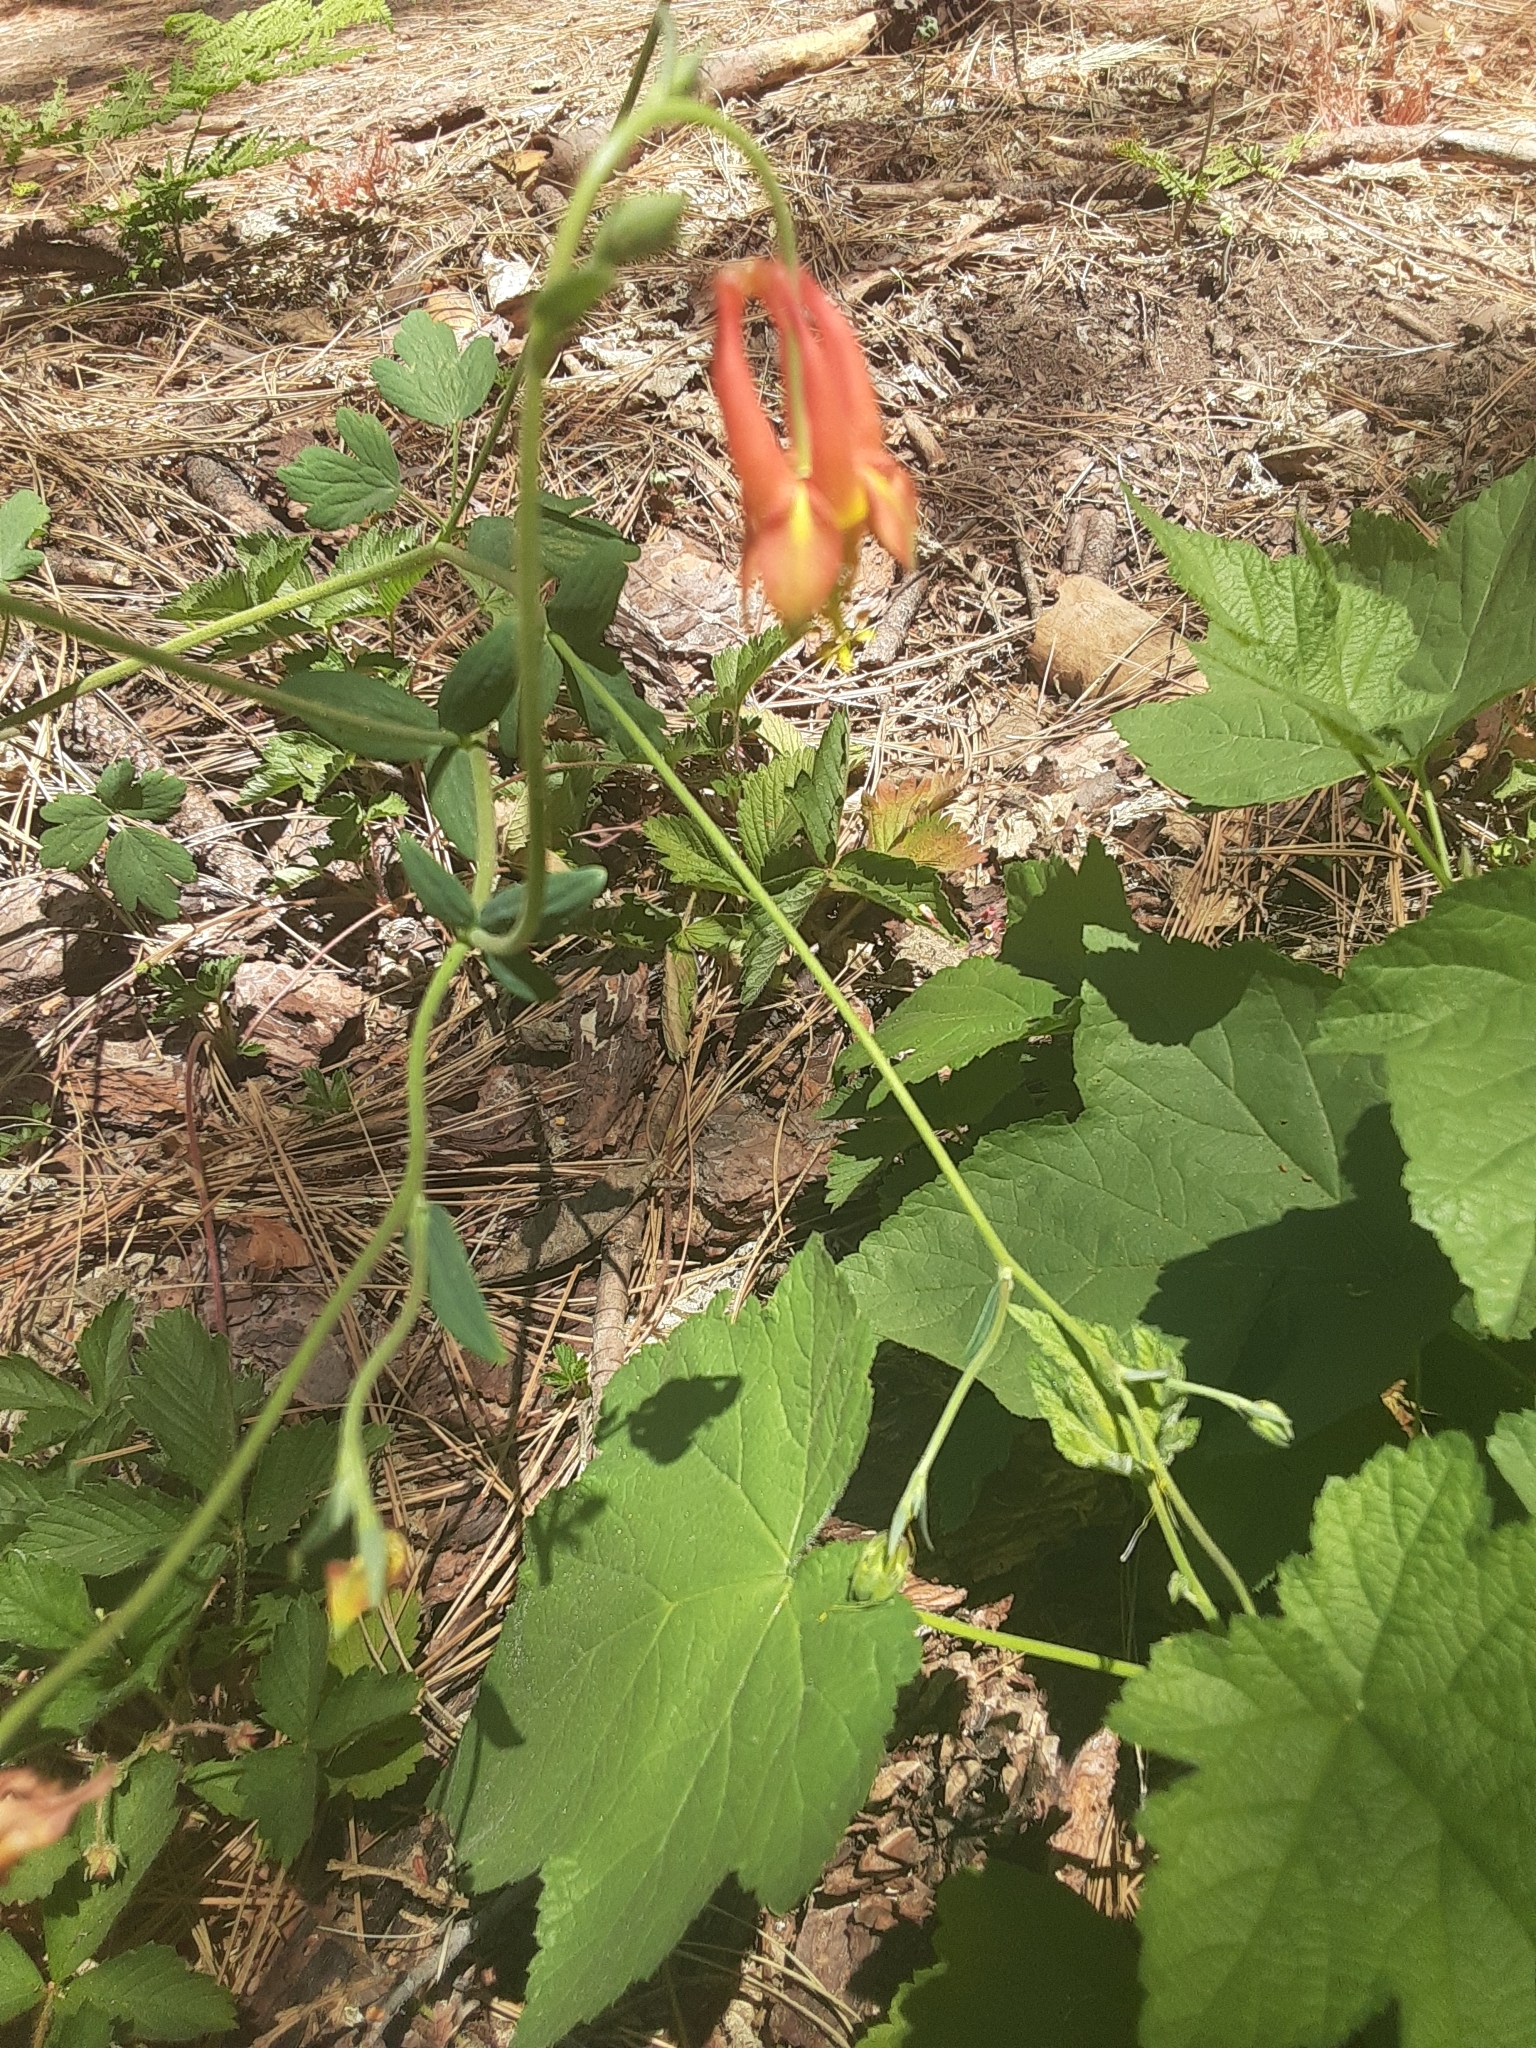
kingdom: Plantae
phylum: Tracheophyta
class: Magnoliopsida
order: Ranunculales
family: Ranunculaceae
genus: Aquilegia
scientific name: Aquilegia formosa
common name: Sitka columbine
